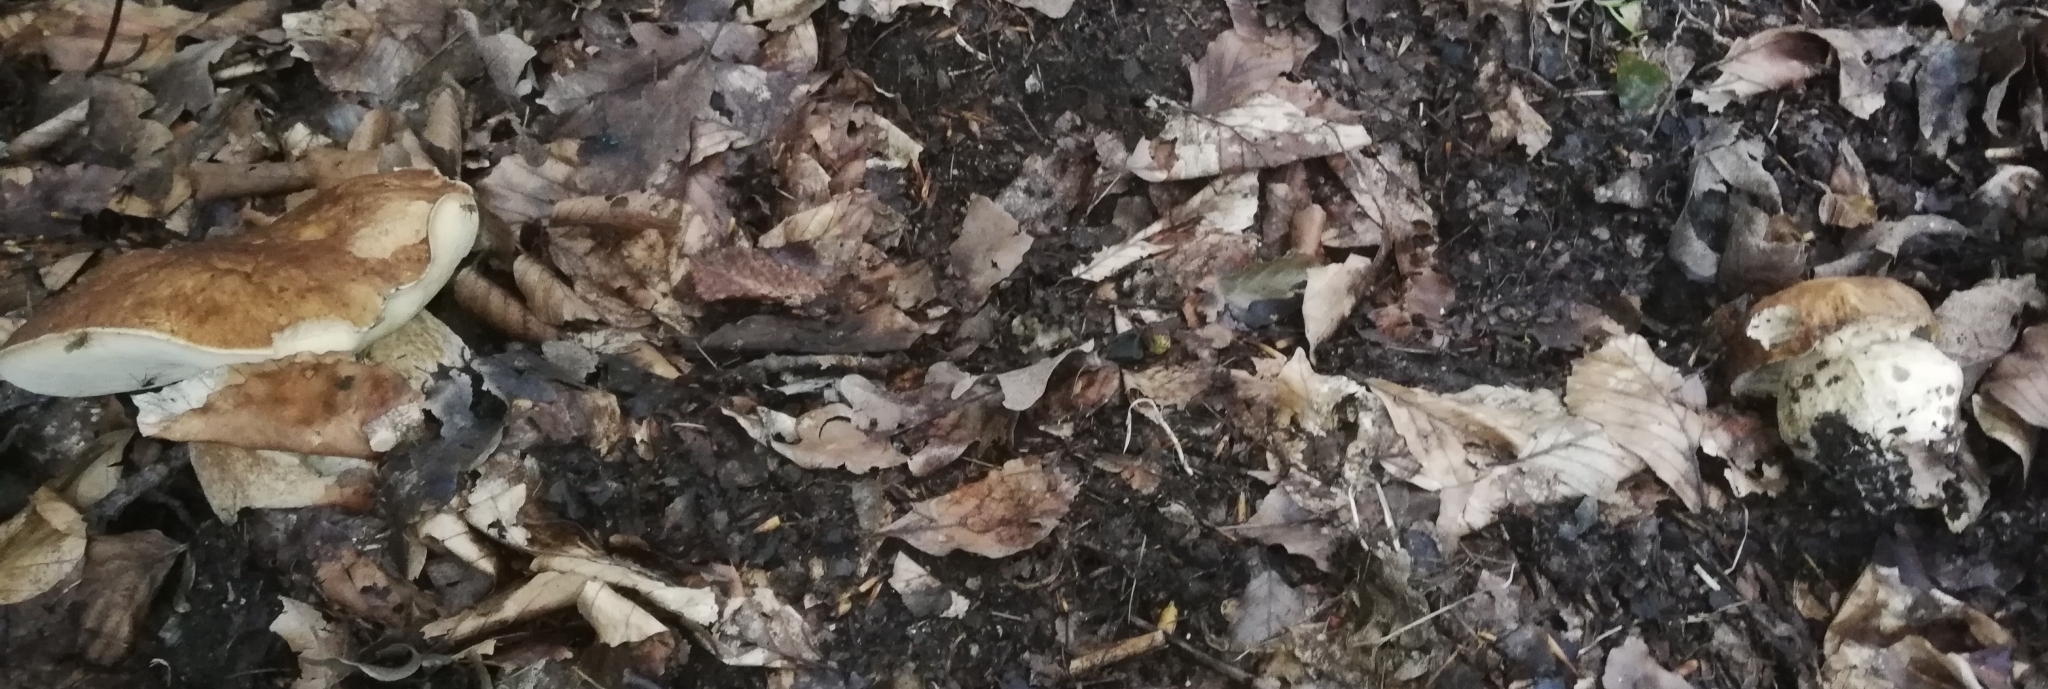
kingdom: Fungi
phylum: Basidiomycota
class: Agaricomycetes
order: Boletales
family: Boletaceae
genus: Boletus
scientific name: Boletus reticulatus
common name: Summer bolete
